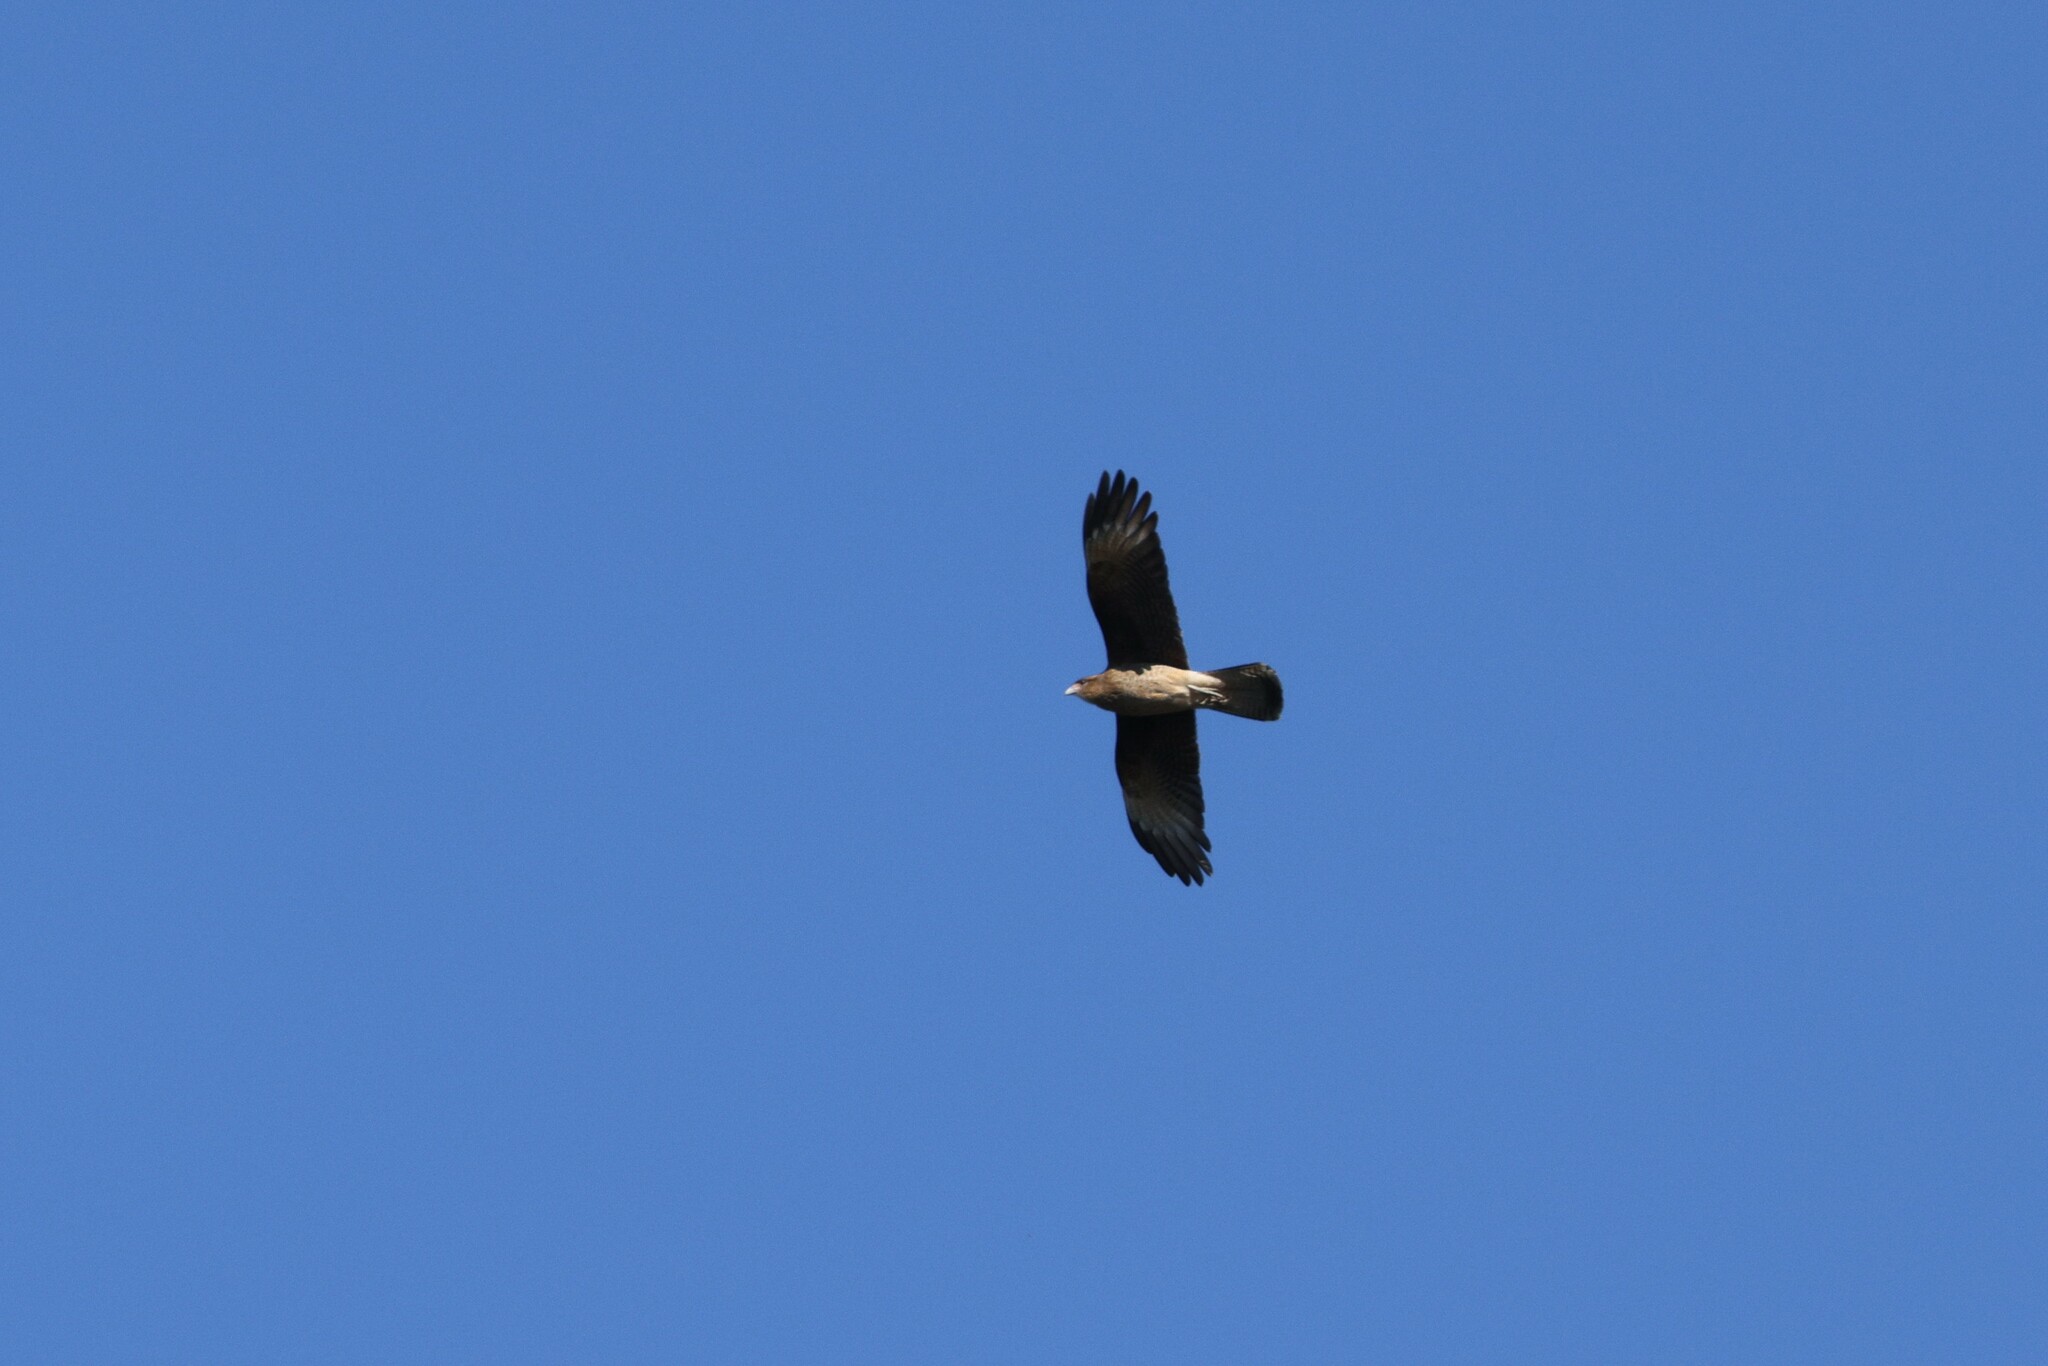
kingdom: Animalia
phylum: Chordata
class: Aves
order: Falconiformes
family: Falconidae
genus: Daptrius
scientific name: Daptrius
